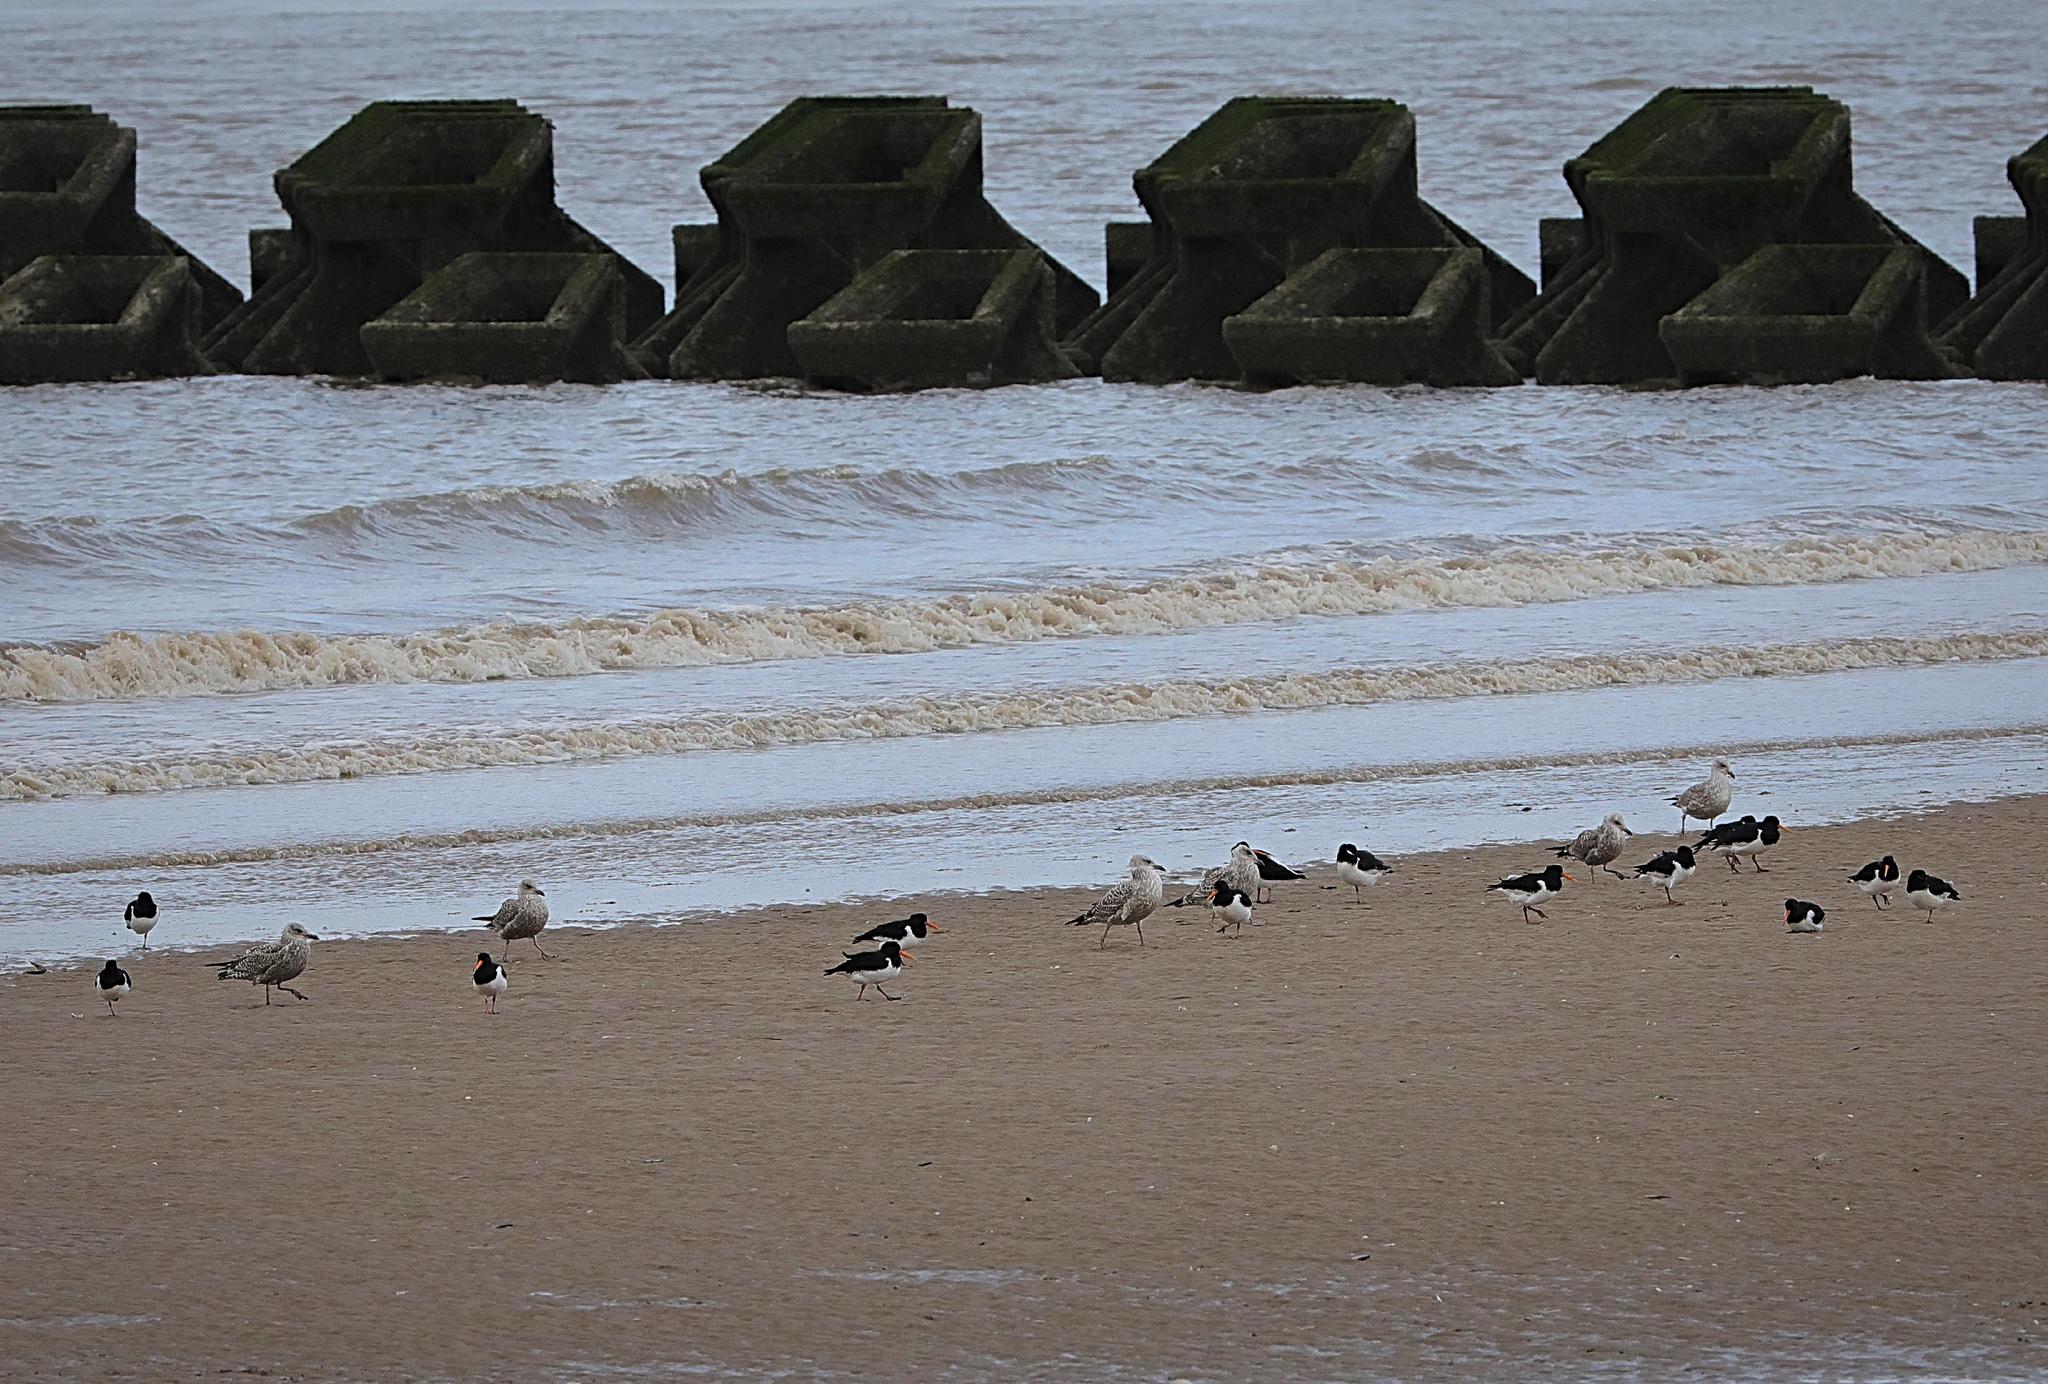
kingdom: Animalia
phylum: Chordata
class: Aves
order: Charadriiformes
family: Haematopodidae
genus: Haematopus
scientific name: Haematopus ostralegus
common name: Eurasian oystercatcher
